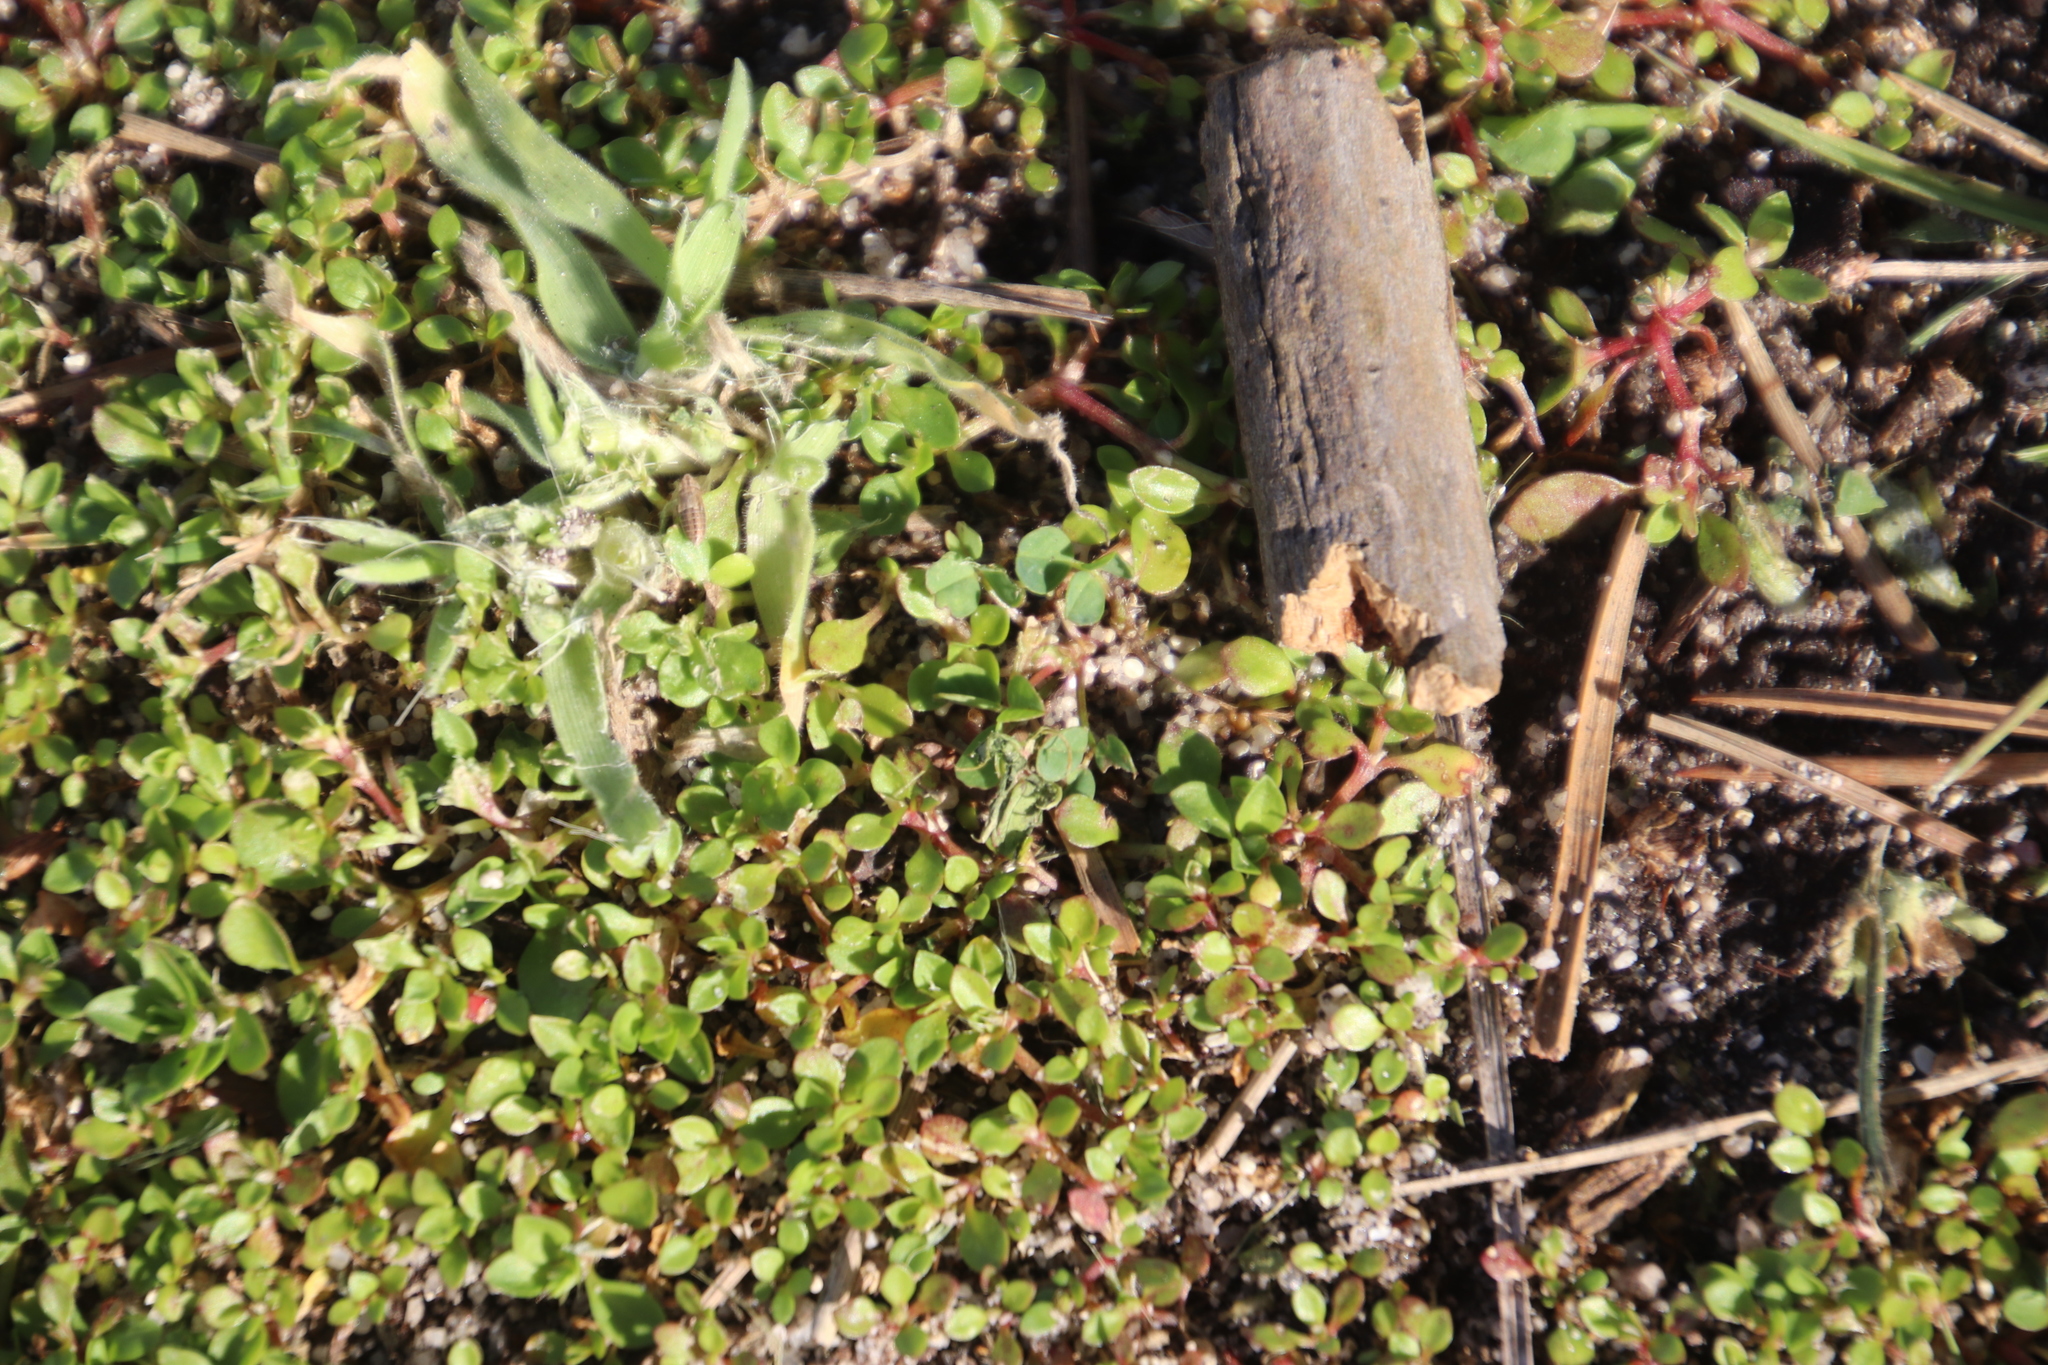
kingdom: Plantae
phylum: Tracheophyta
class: Magnoliopsida
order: Caryophyllales
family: Caryophyllaceae
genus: Polycarpon
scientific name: Polycarpon tetraphyllum
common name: Four-leaved all-seed
